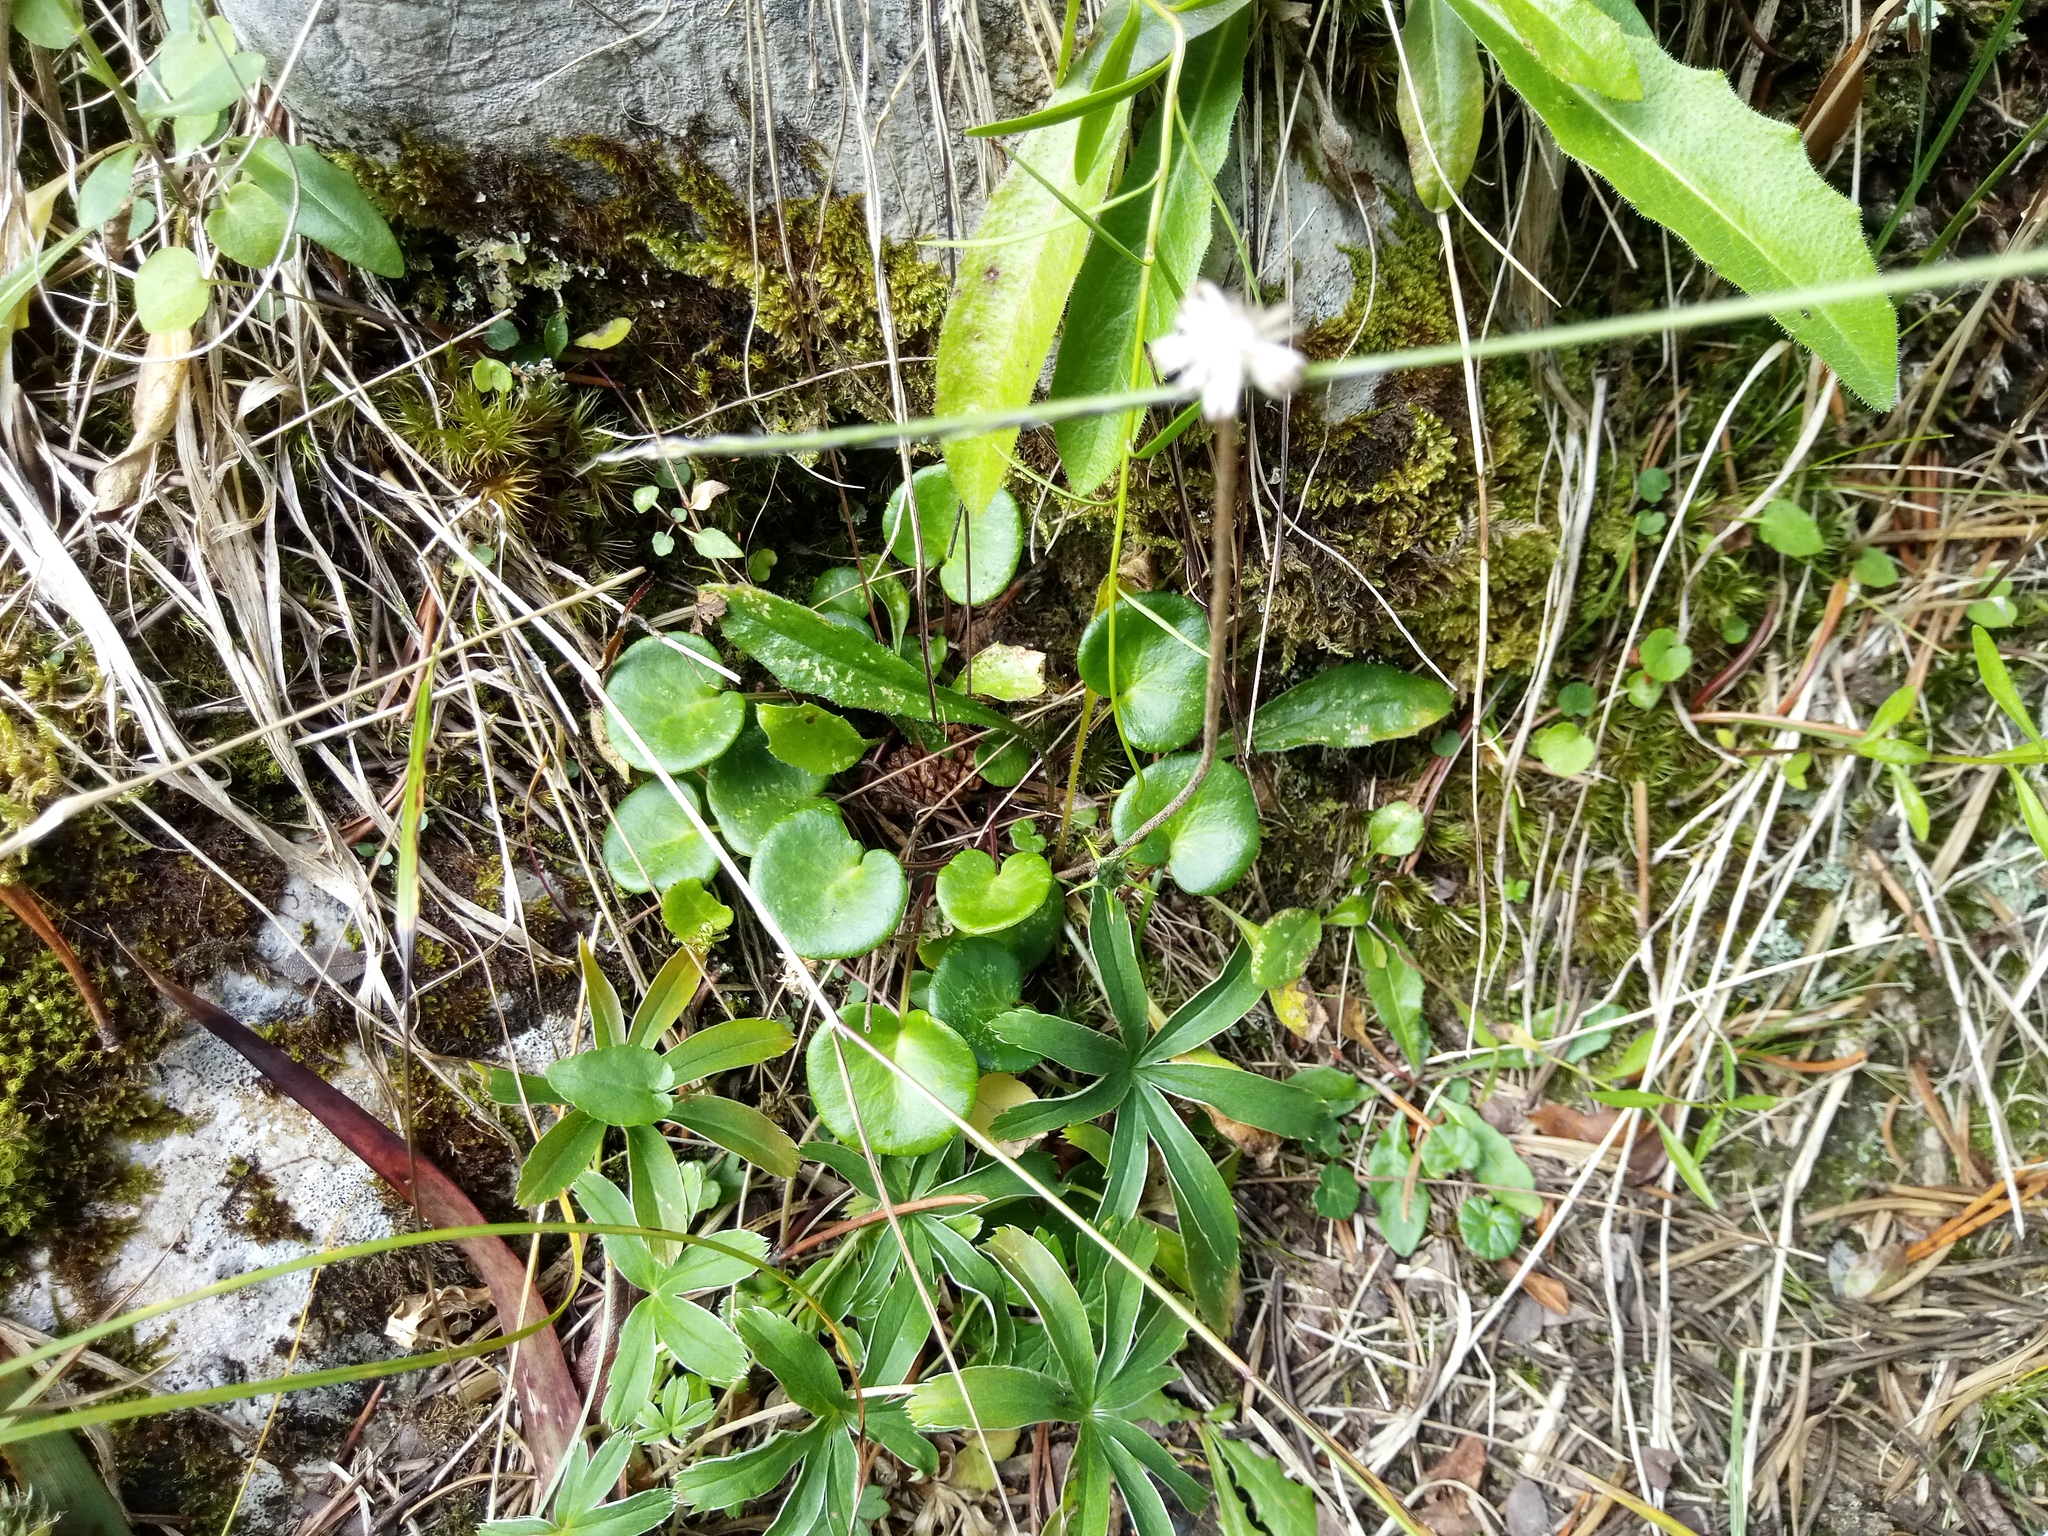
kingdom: Plantae
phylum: Tracheophyta
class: Magnoliopsida
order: Ericales
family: Primulaceae
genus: Soldanella
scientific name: Soldanella alpina
